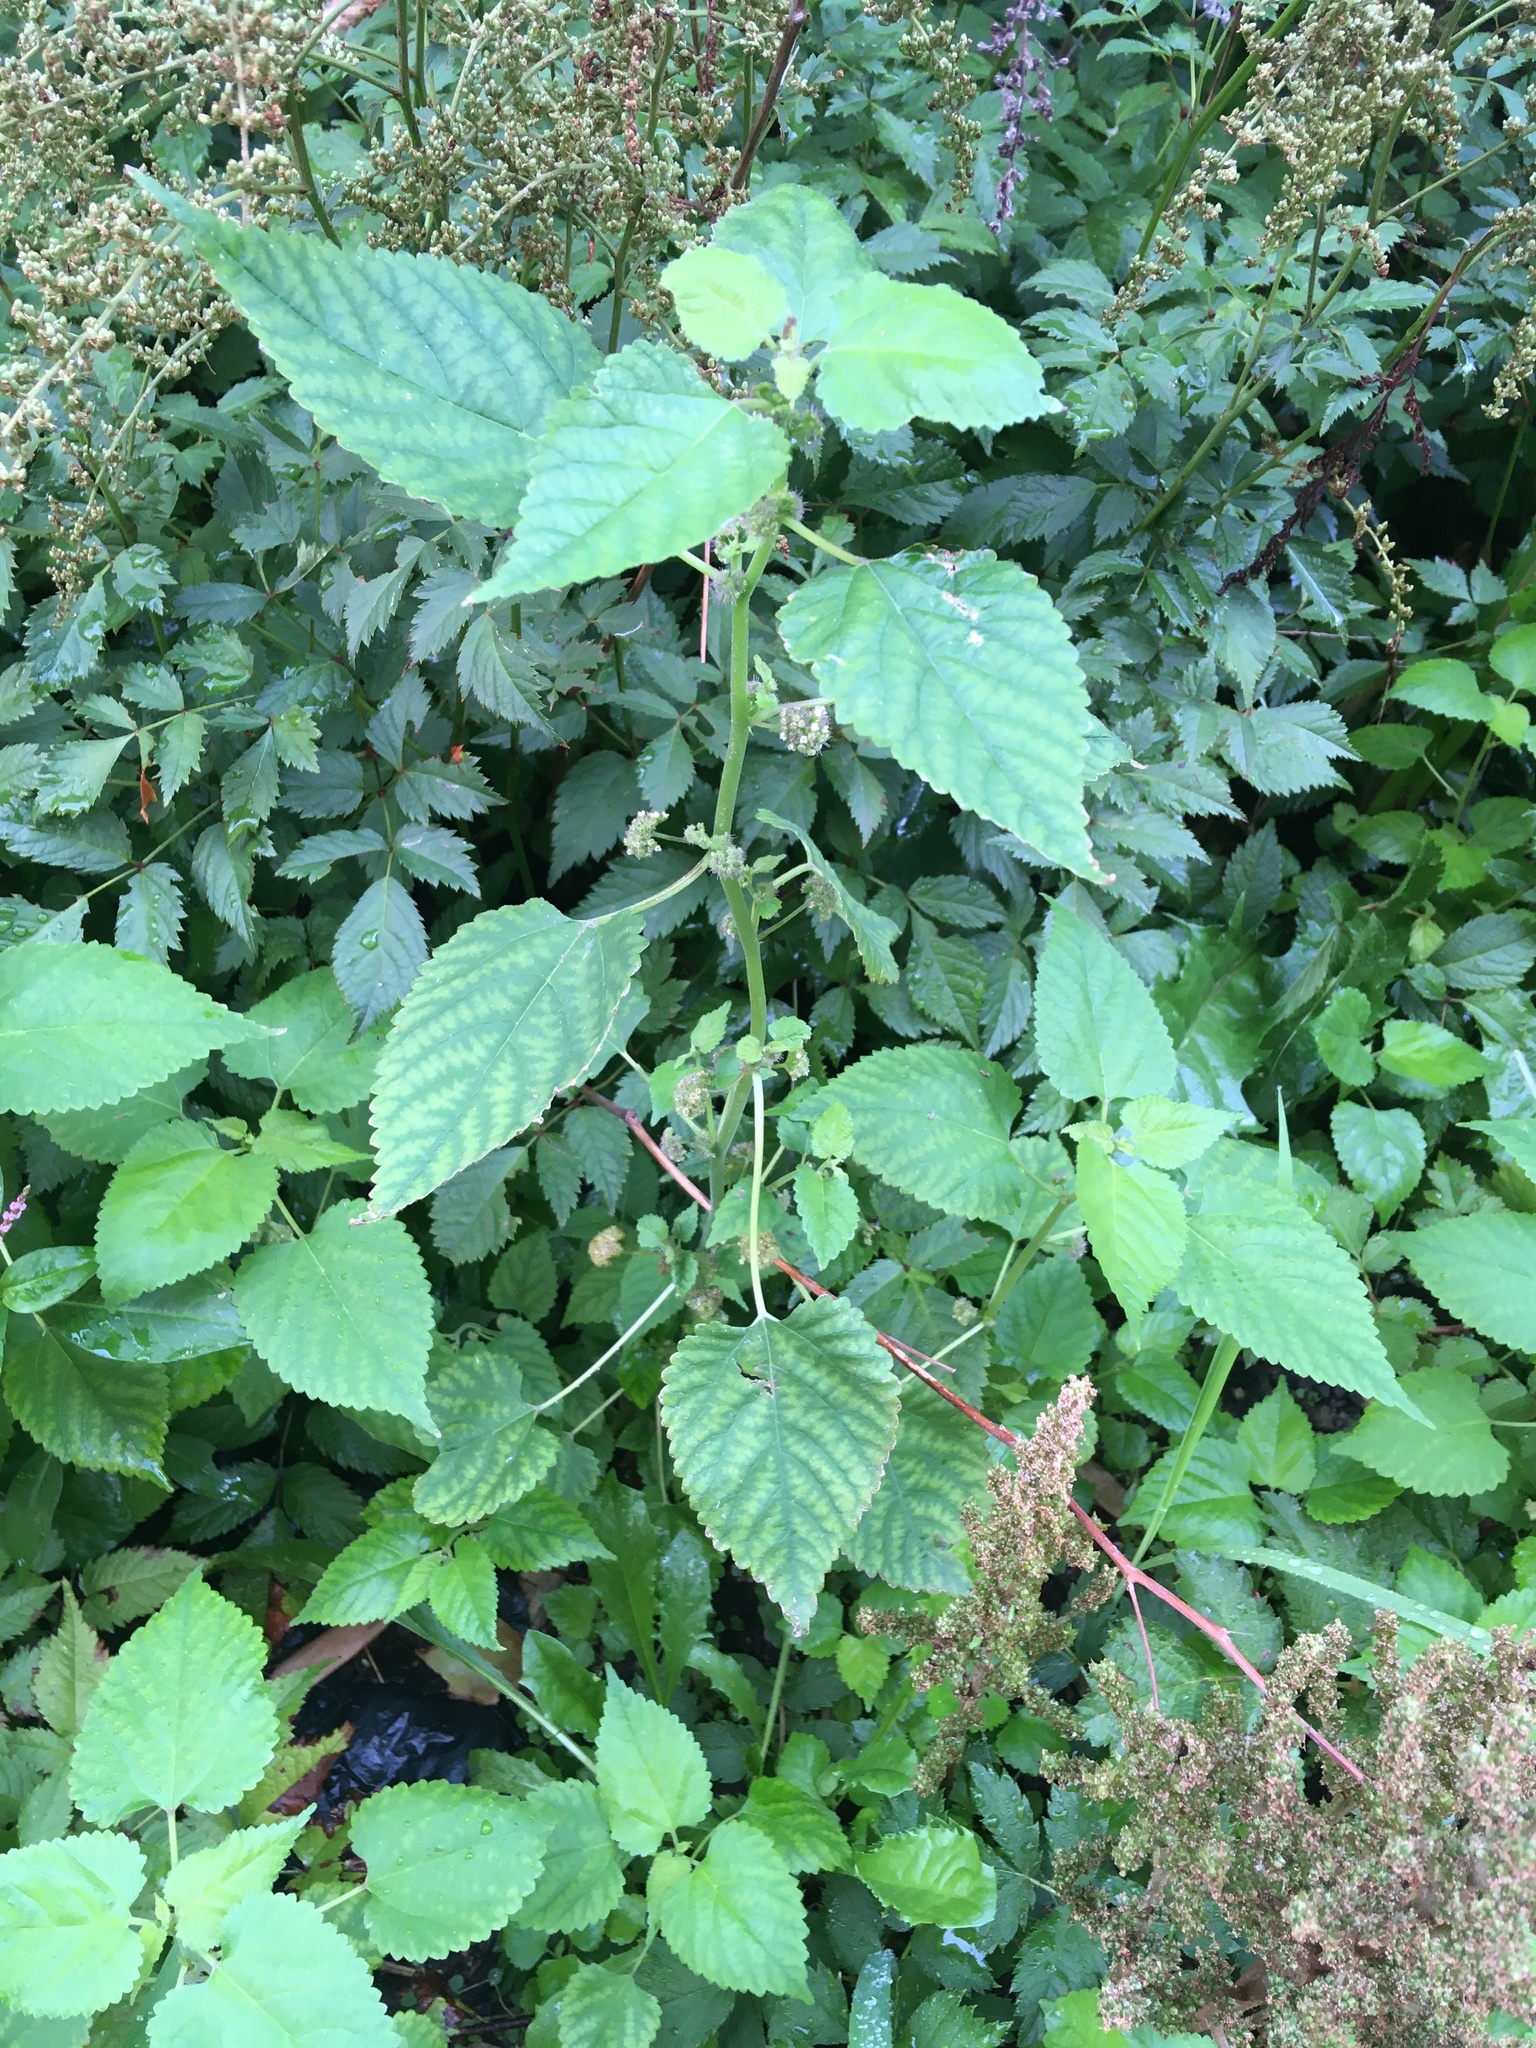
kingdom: Plantae
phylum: Tracheophyta
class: Magnoliopsida
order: Rosales
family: Moraceae
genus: Fatoua
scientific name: Fatoua villosa
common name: Hairy crabweed
